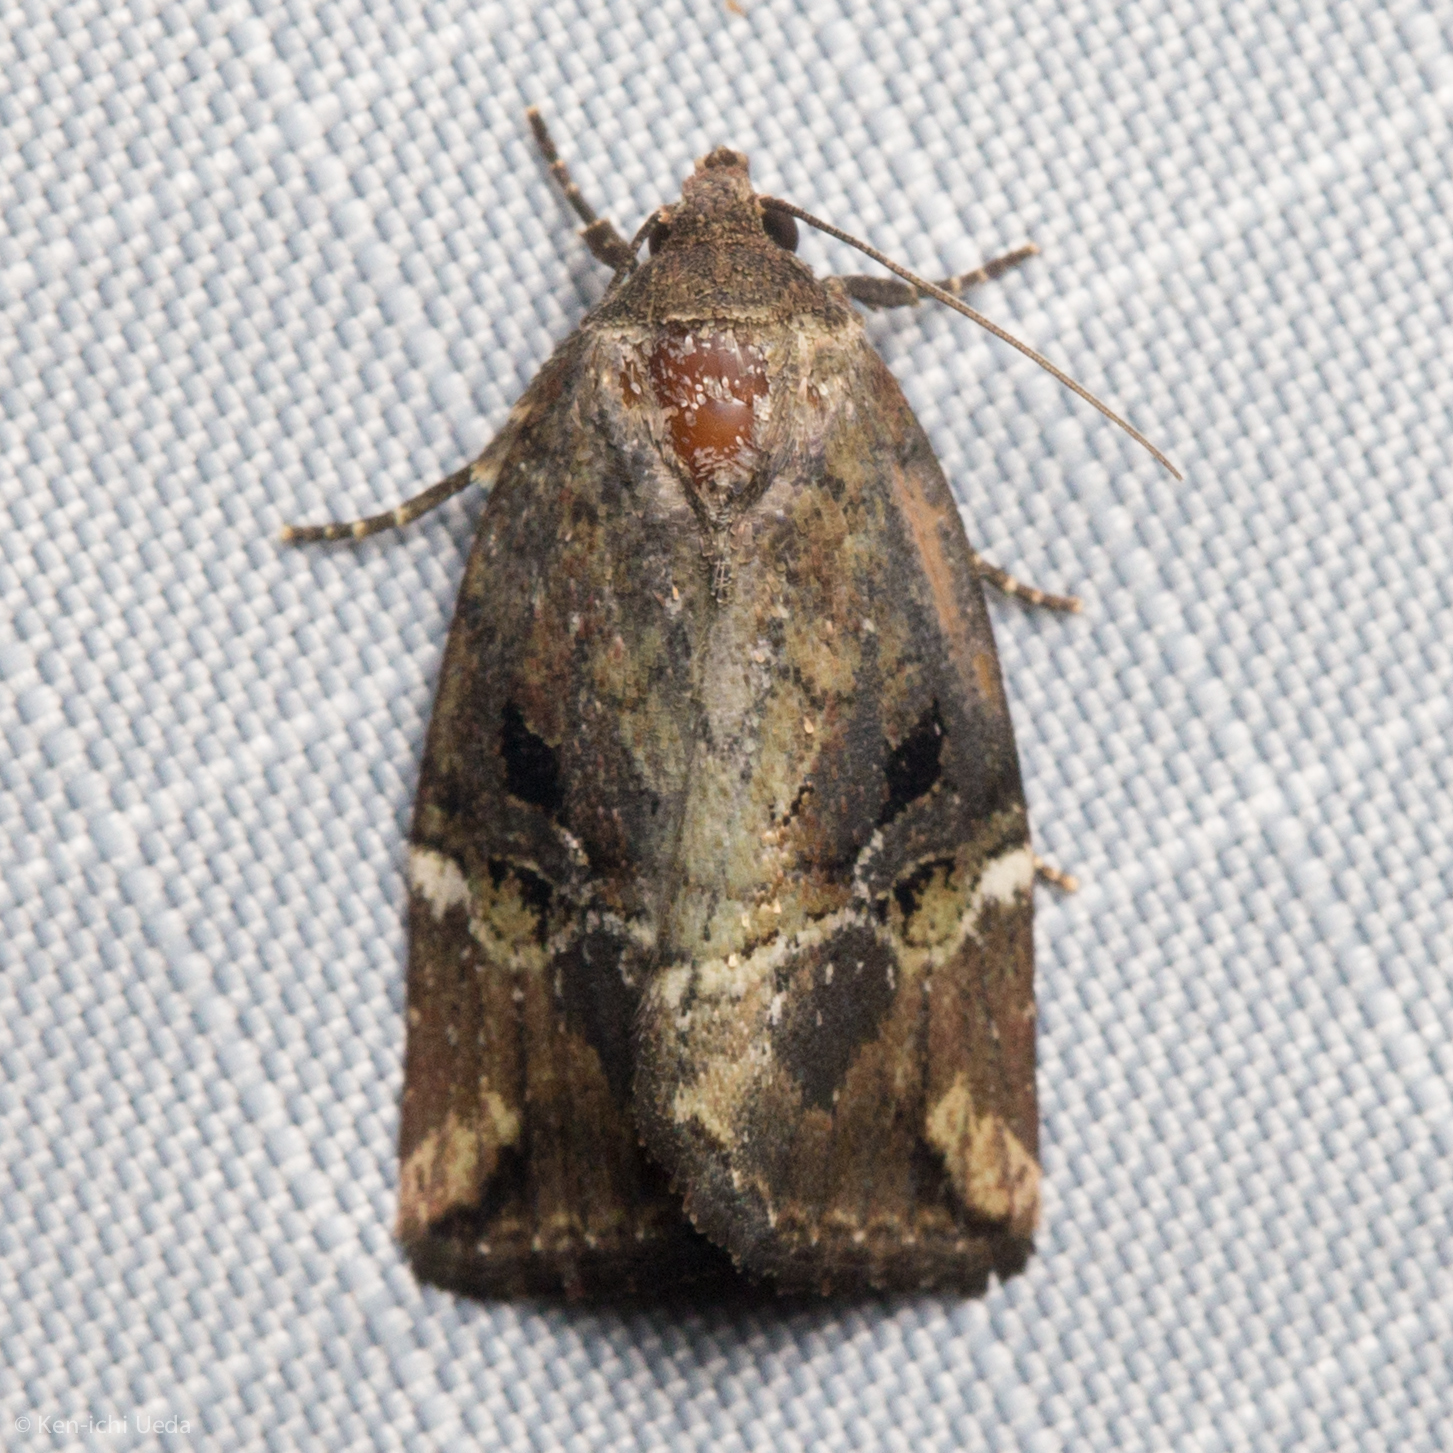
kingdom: Animalia
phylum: Arthropoda
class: Insecta
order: Lepidoptera
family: Noctuidae
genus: Elaphria
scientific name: Elaphria versicolor
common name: Fir harlequin
